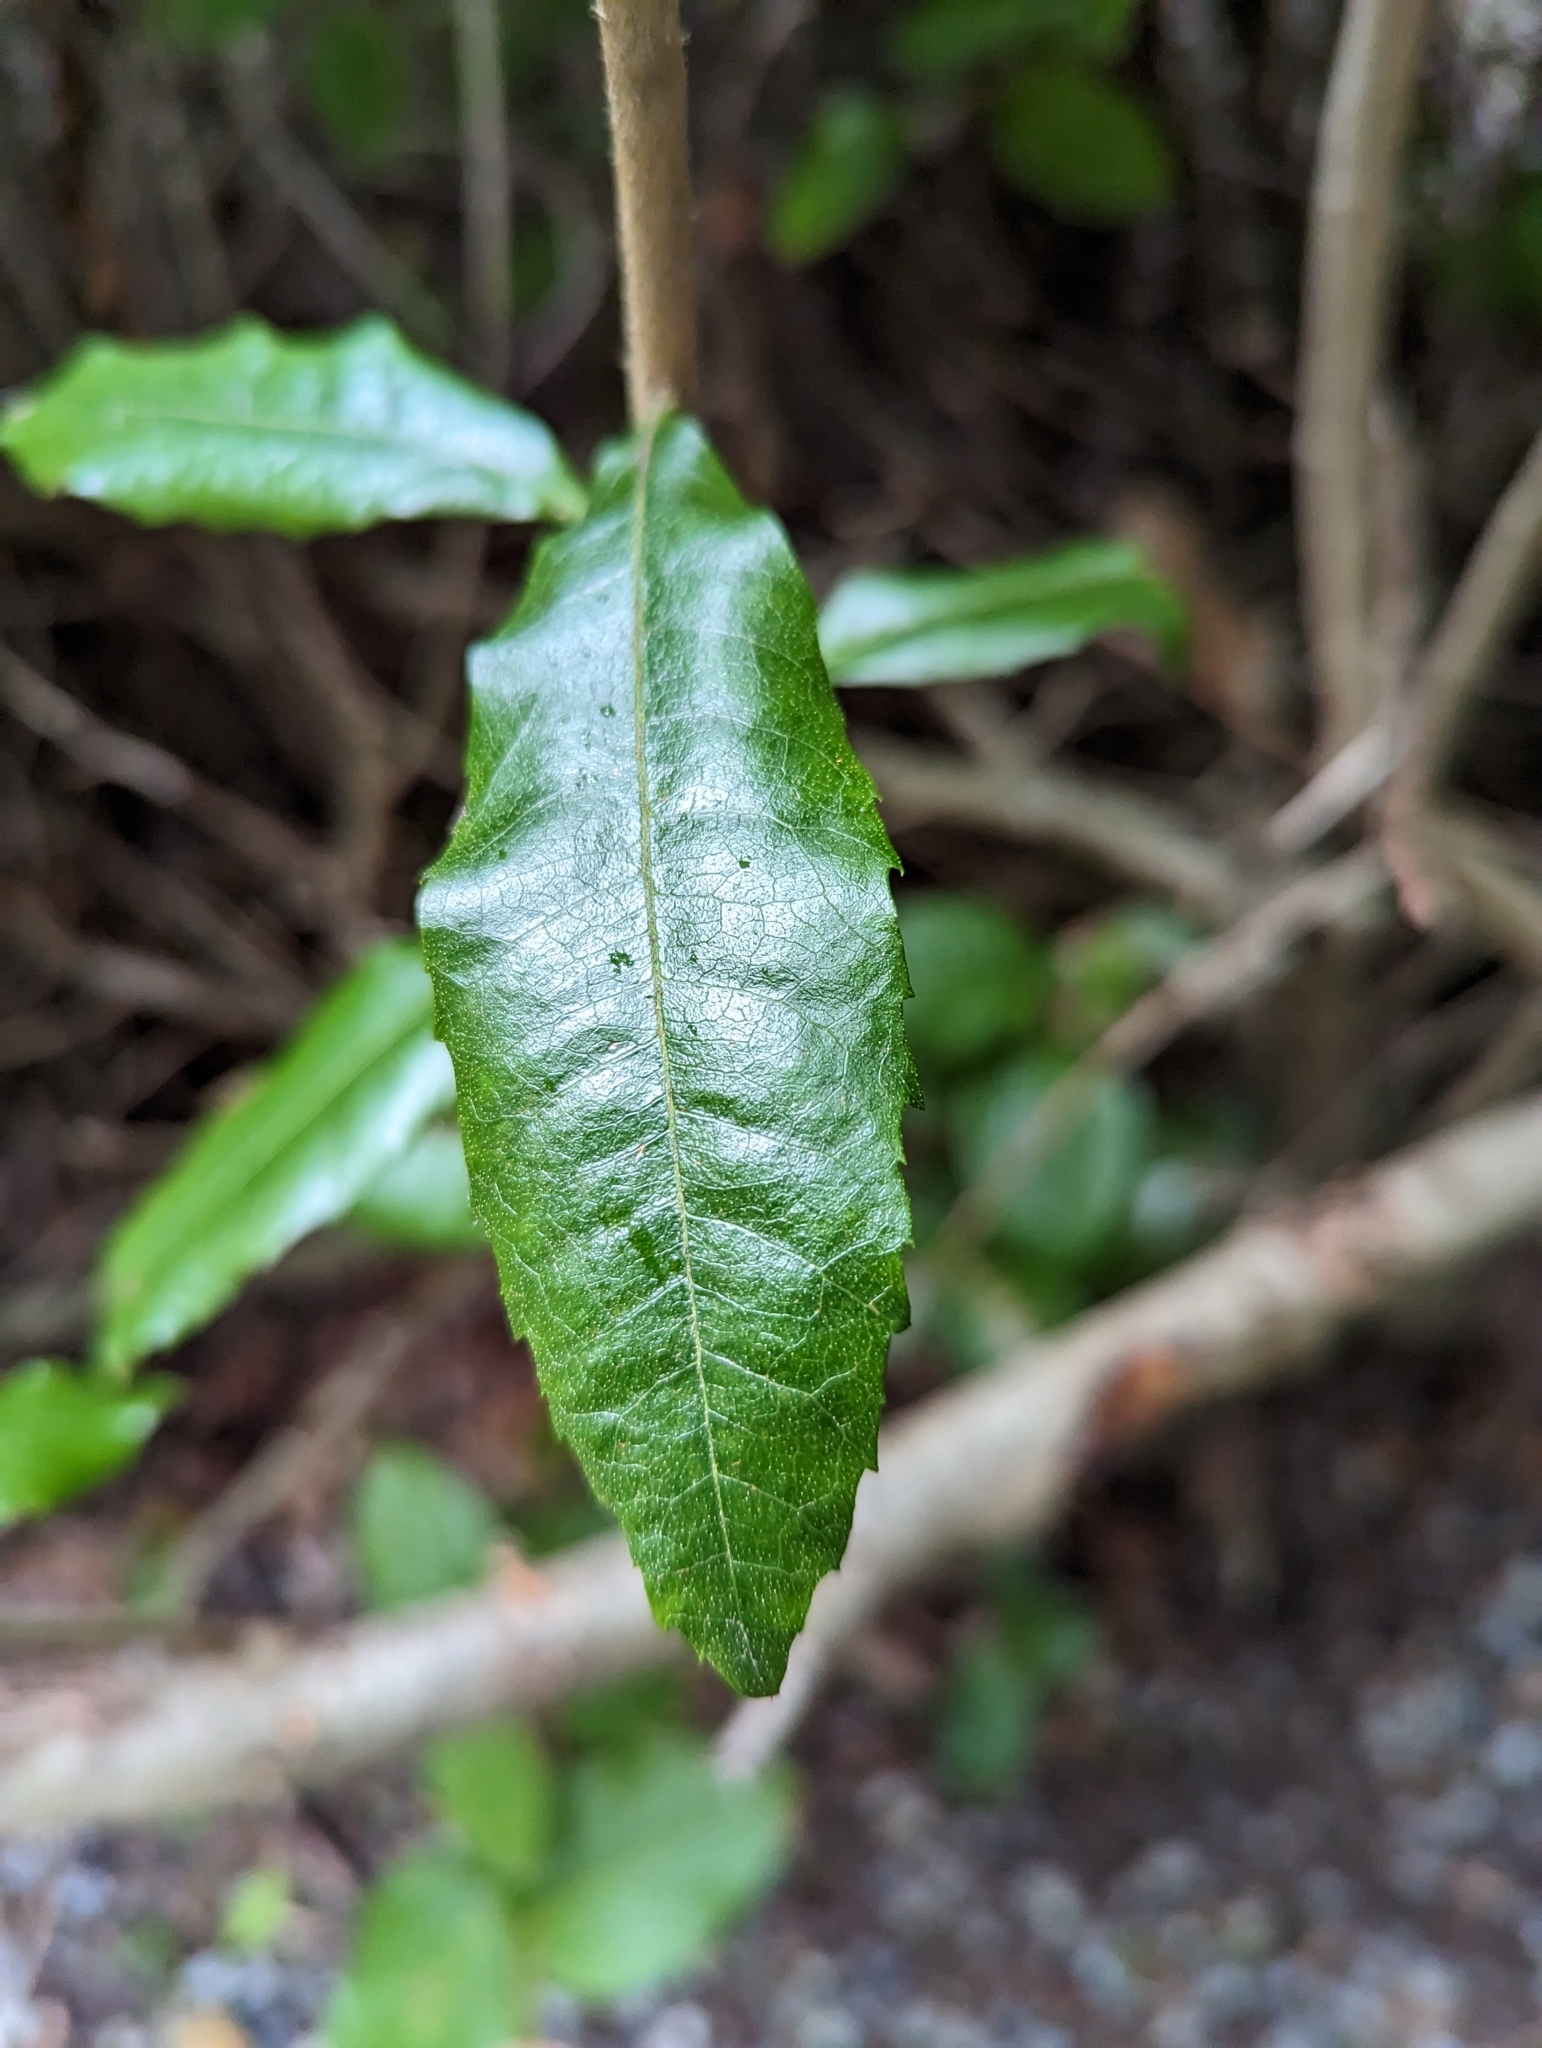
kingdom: Plantae
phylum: Tracheophyta
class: Magnoliopsida
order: Fagales
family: Myricaceae
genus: Morella
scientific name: Morella californica
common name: California wax-myrtle
